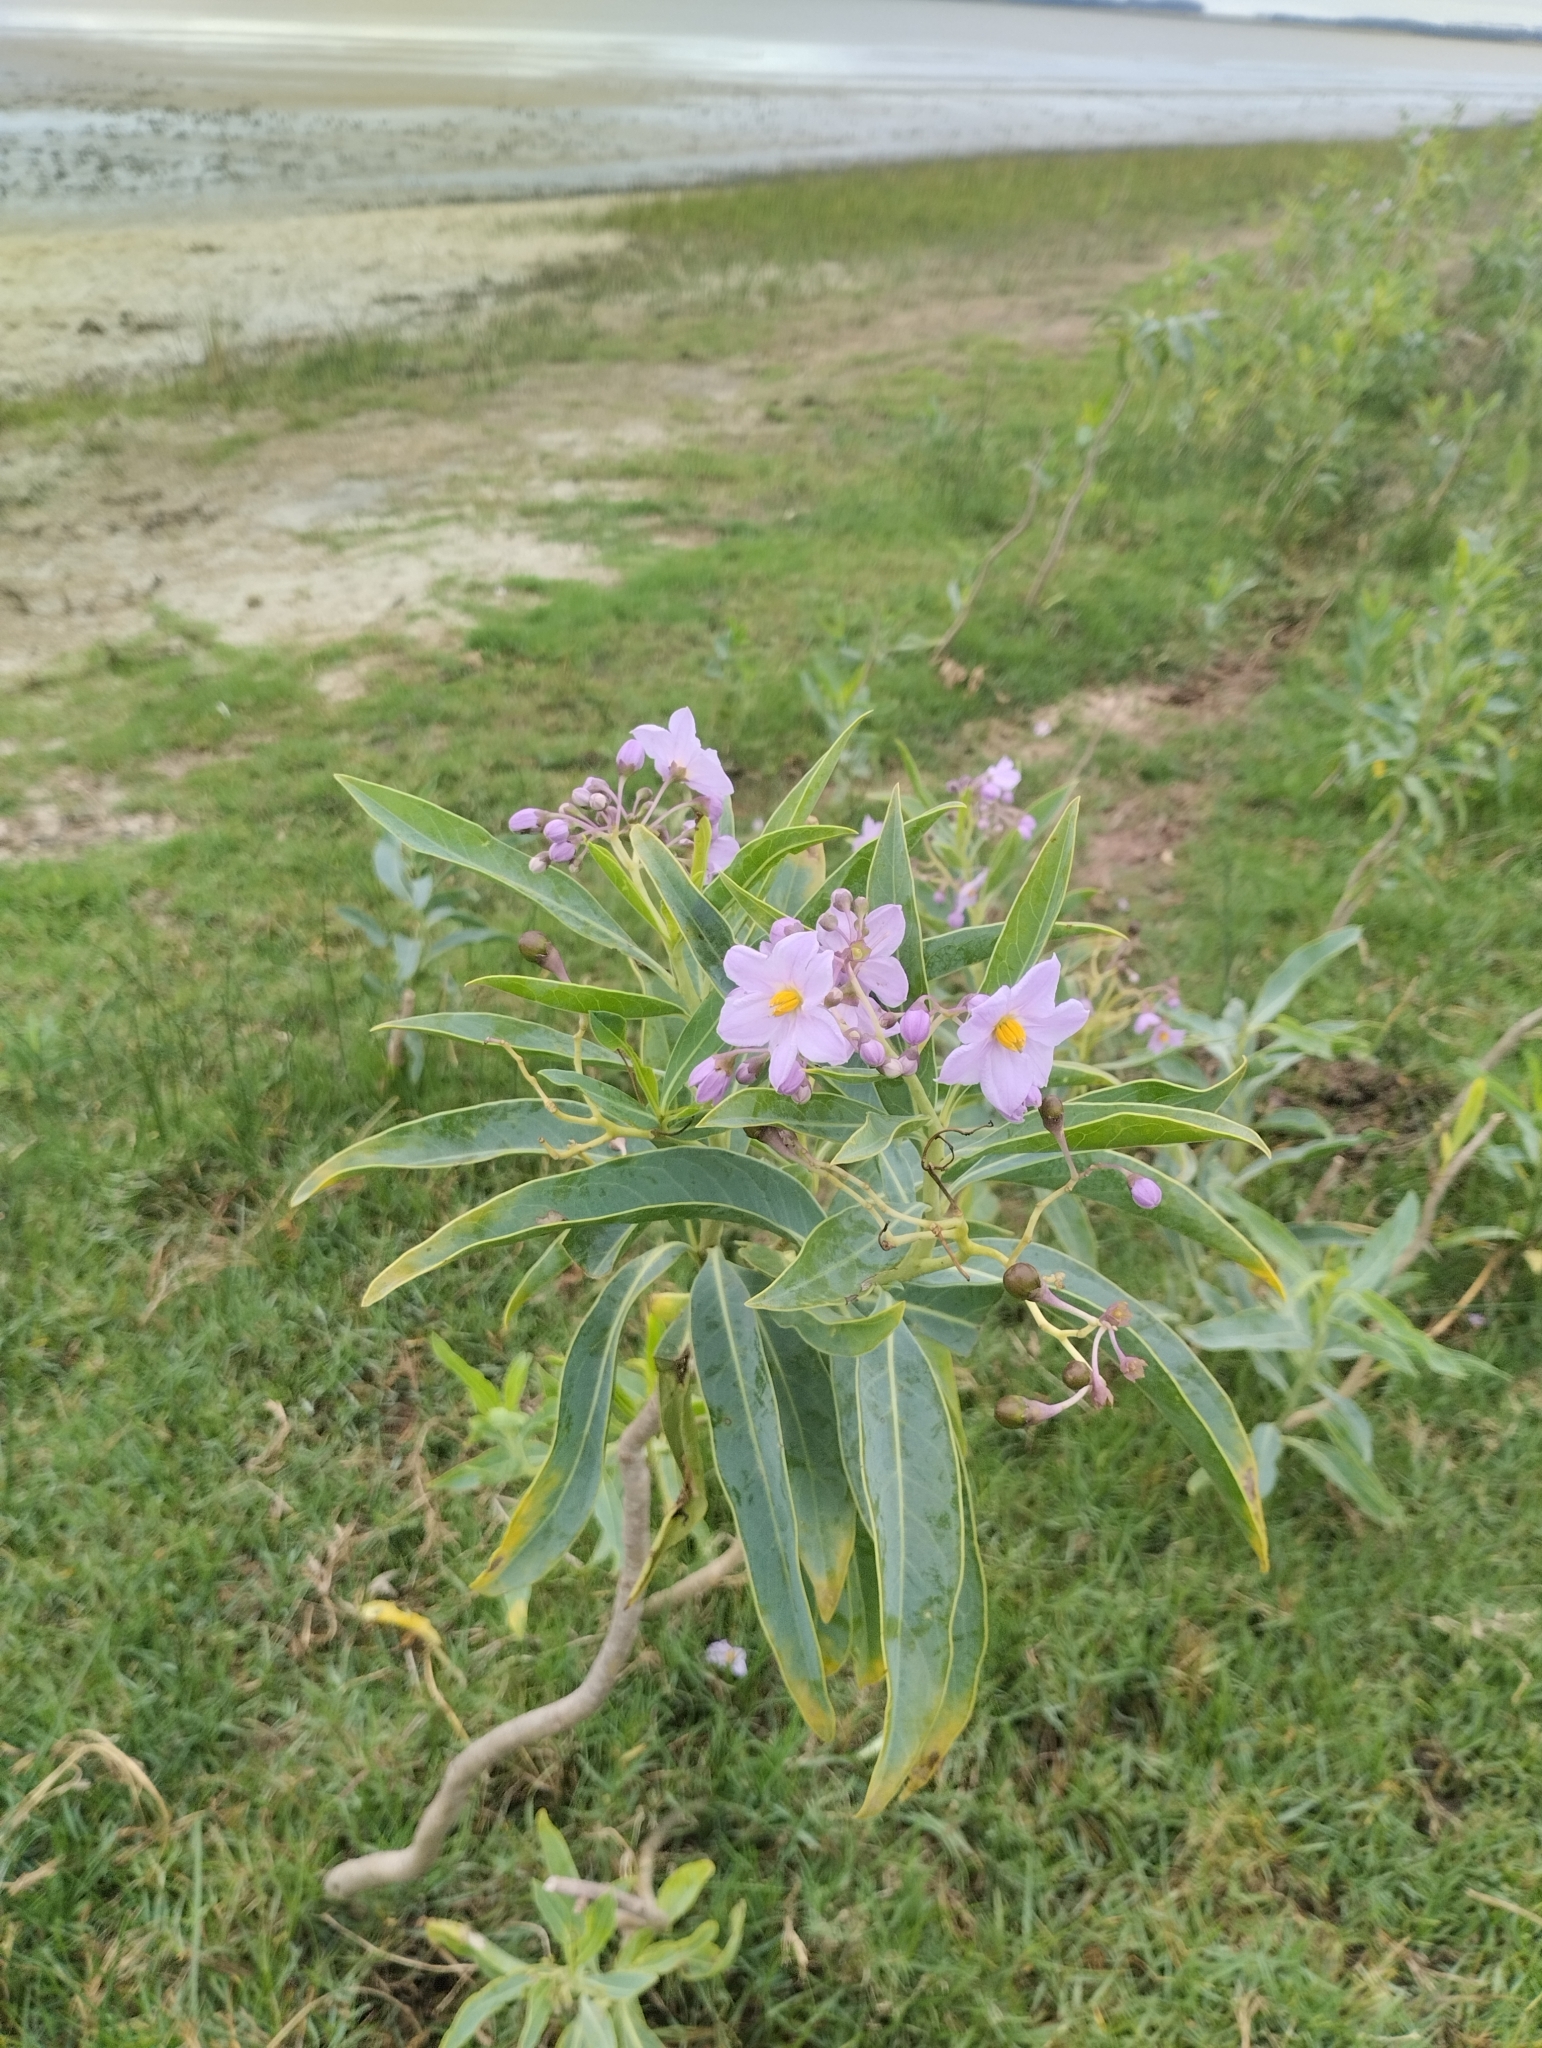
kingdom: Plantae
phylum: Tracheophyta
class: Magnoliopsida
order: Solanales
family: Solanaceae
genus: Solanum
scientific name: Solanum glaucophyllum
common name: Waxyleaf nightshade
